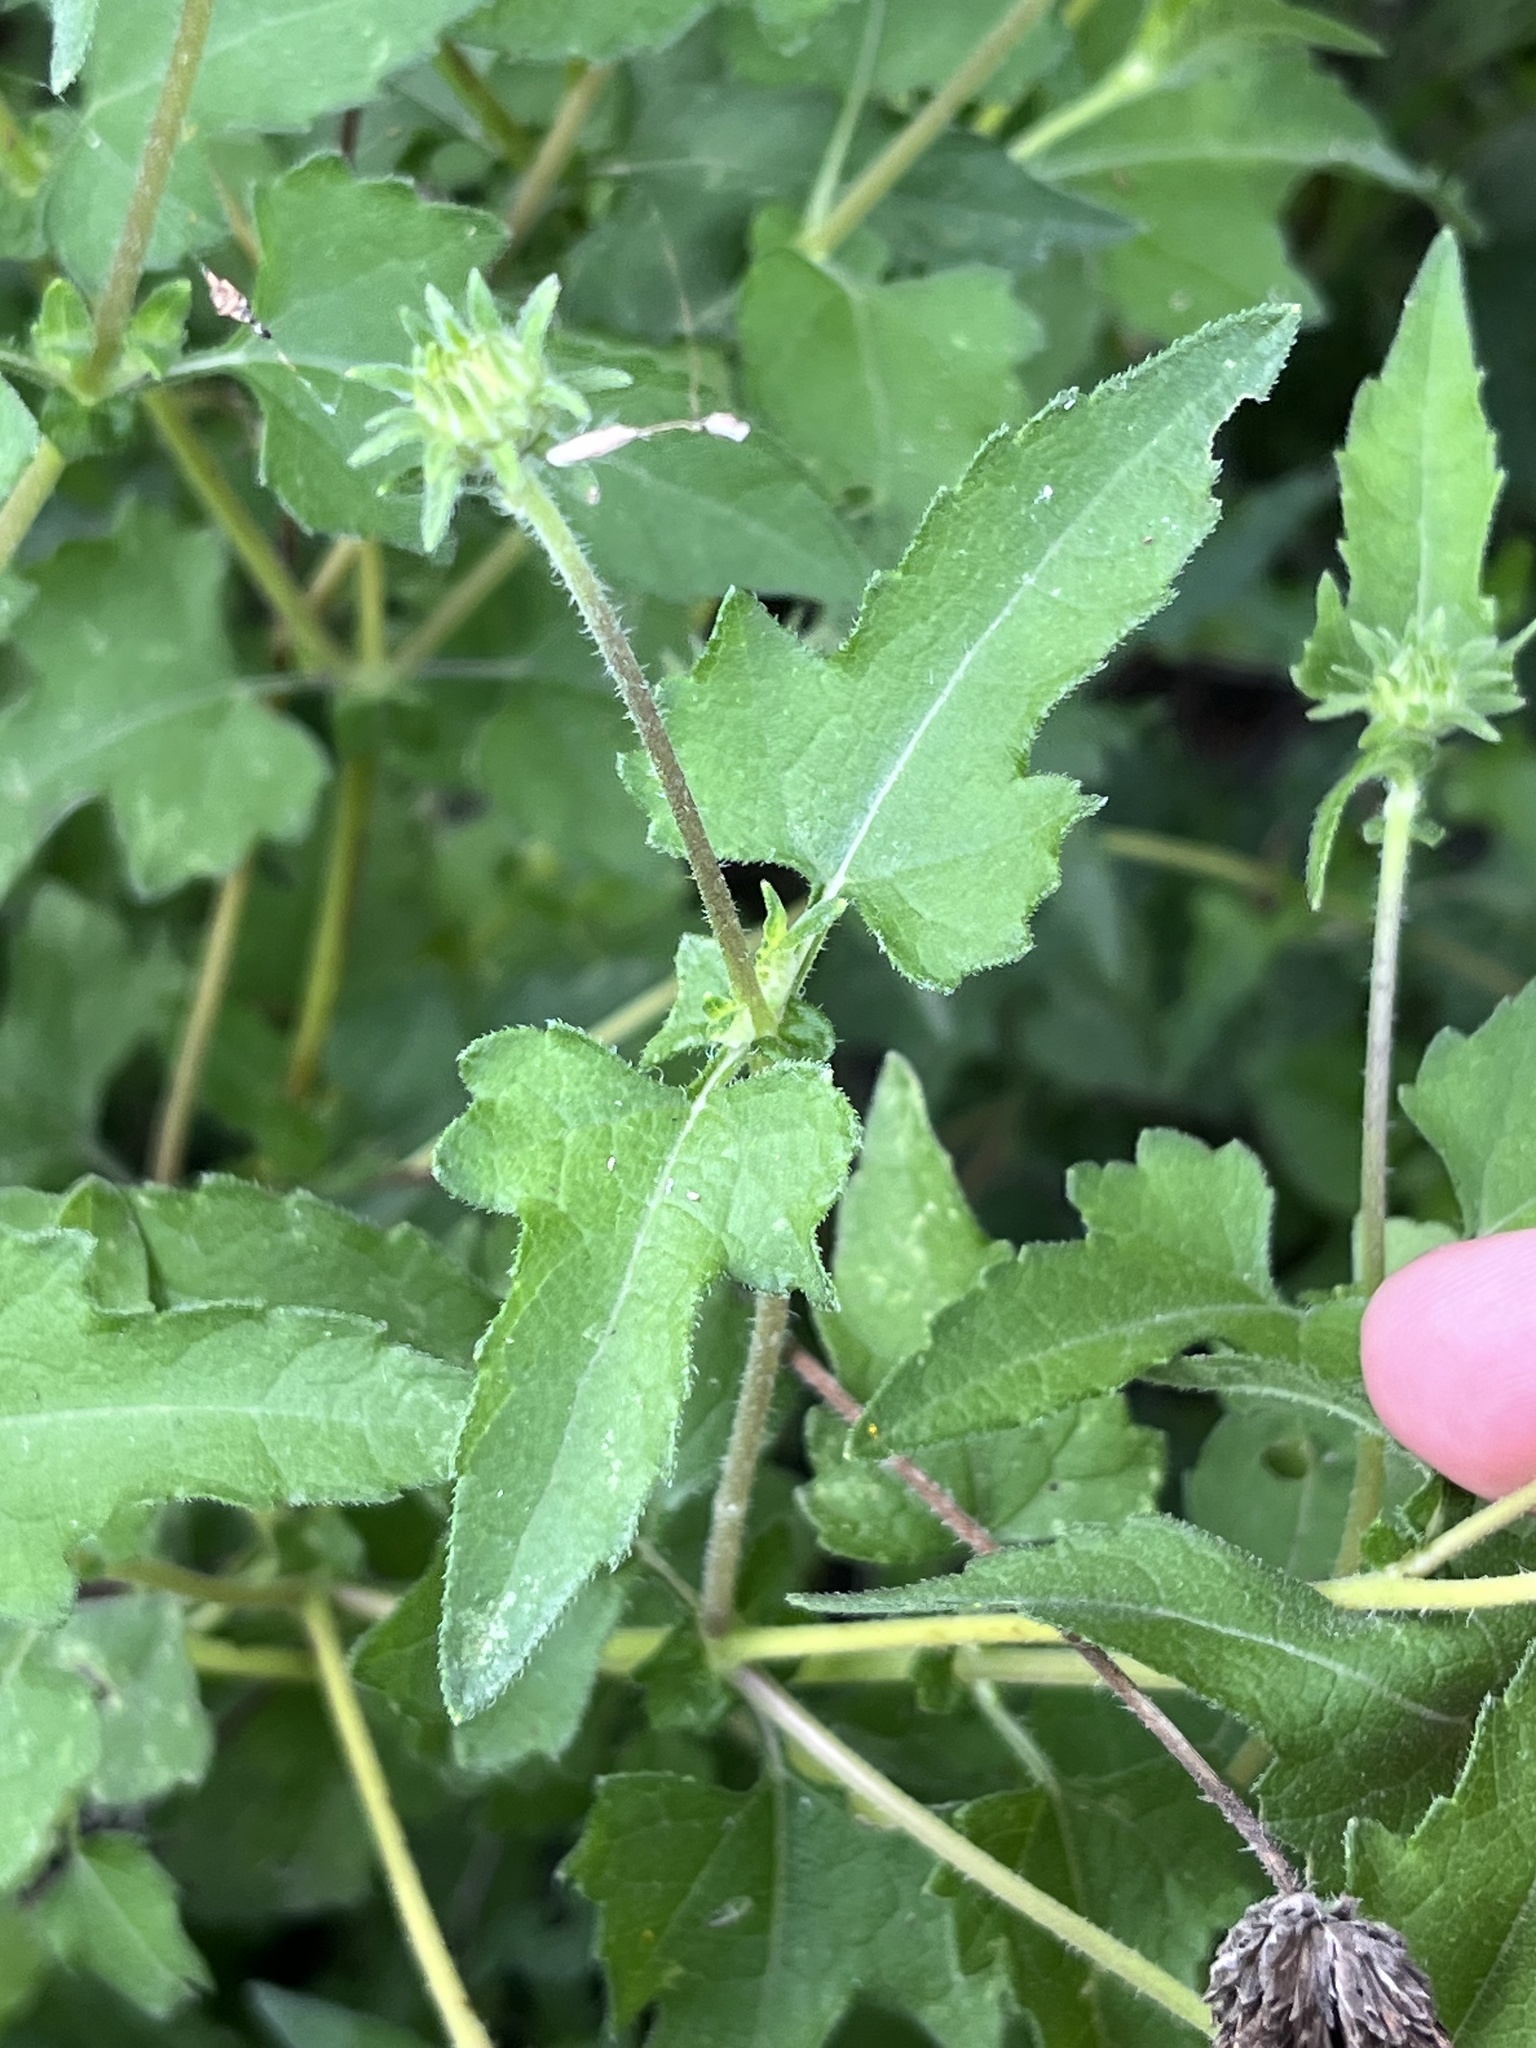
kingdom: Plantae
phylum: Tracheophyta
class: Magnoliopsida
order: Asterales
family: Asteraceae
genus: Simsia
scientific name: Simsia calva
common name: Awnless bush-sunflower
